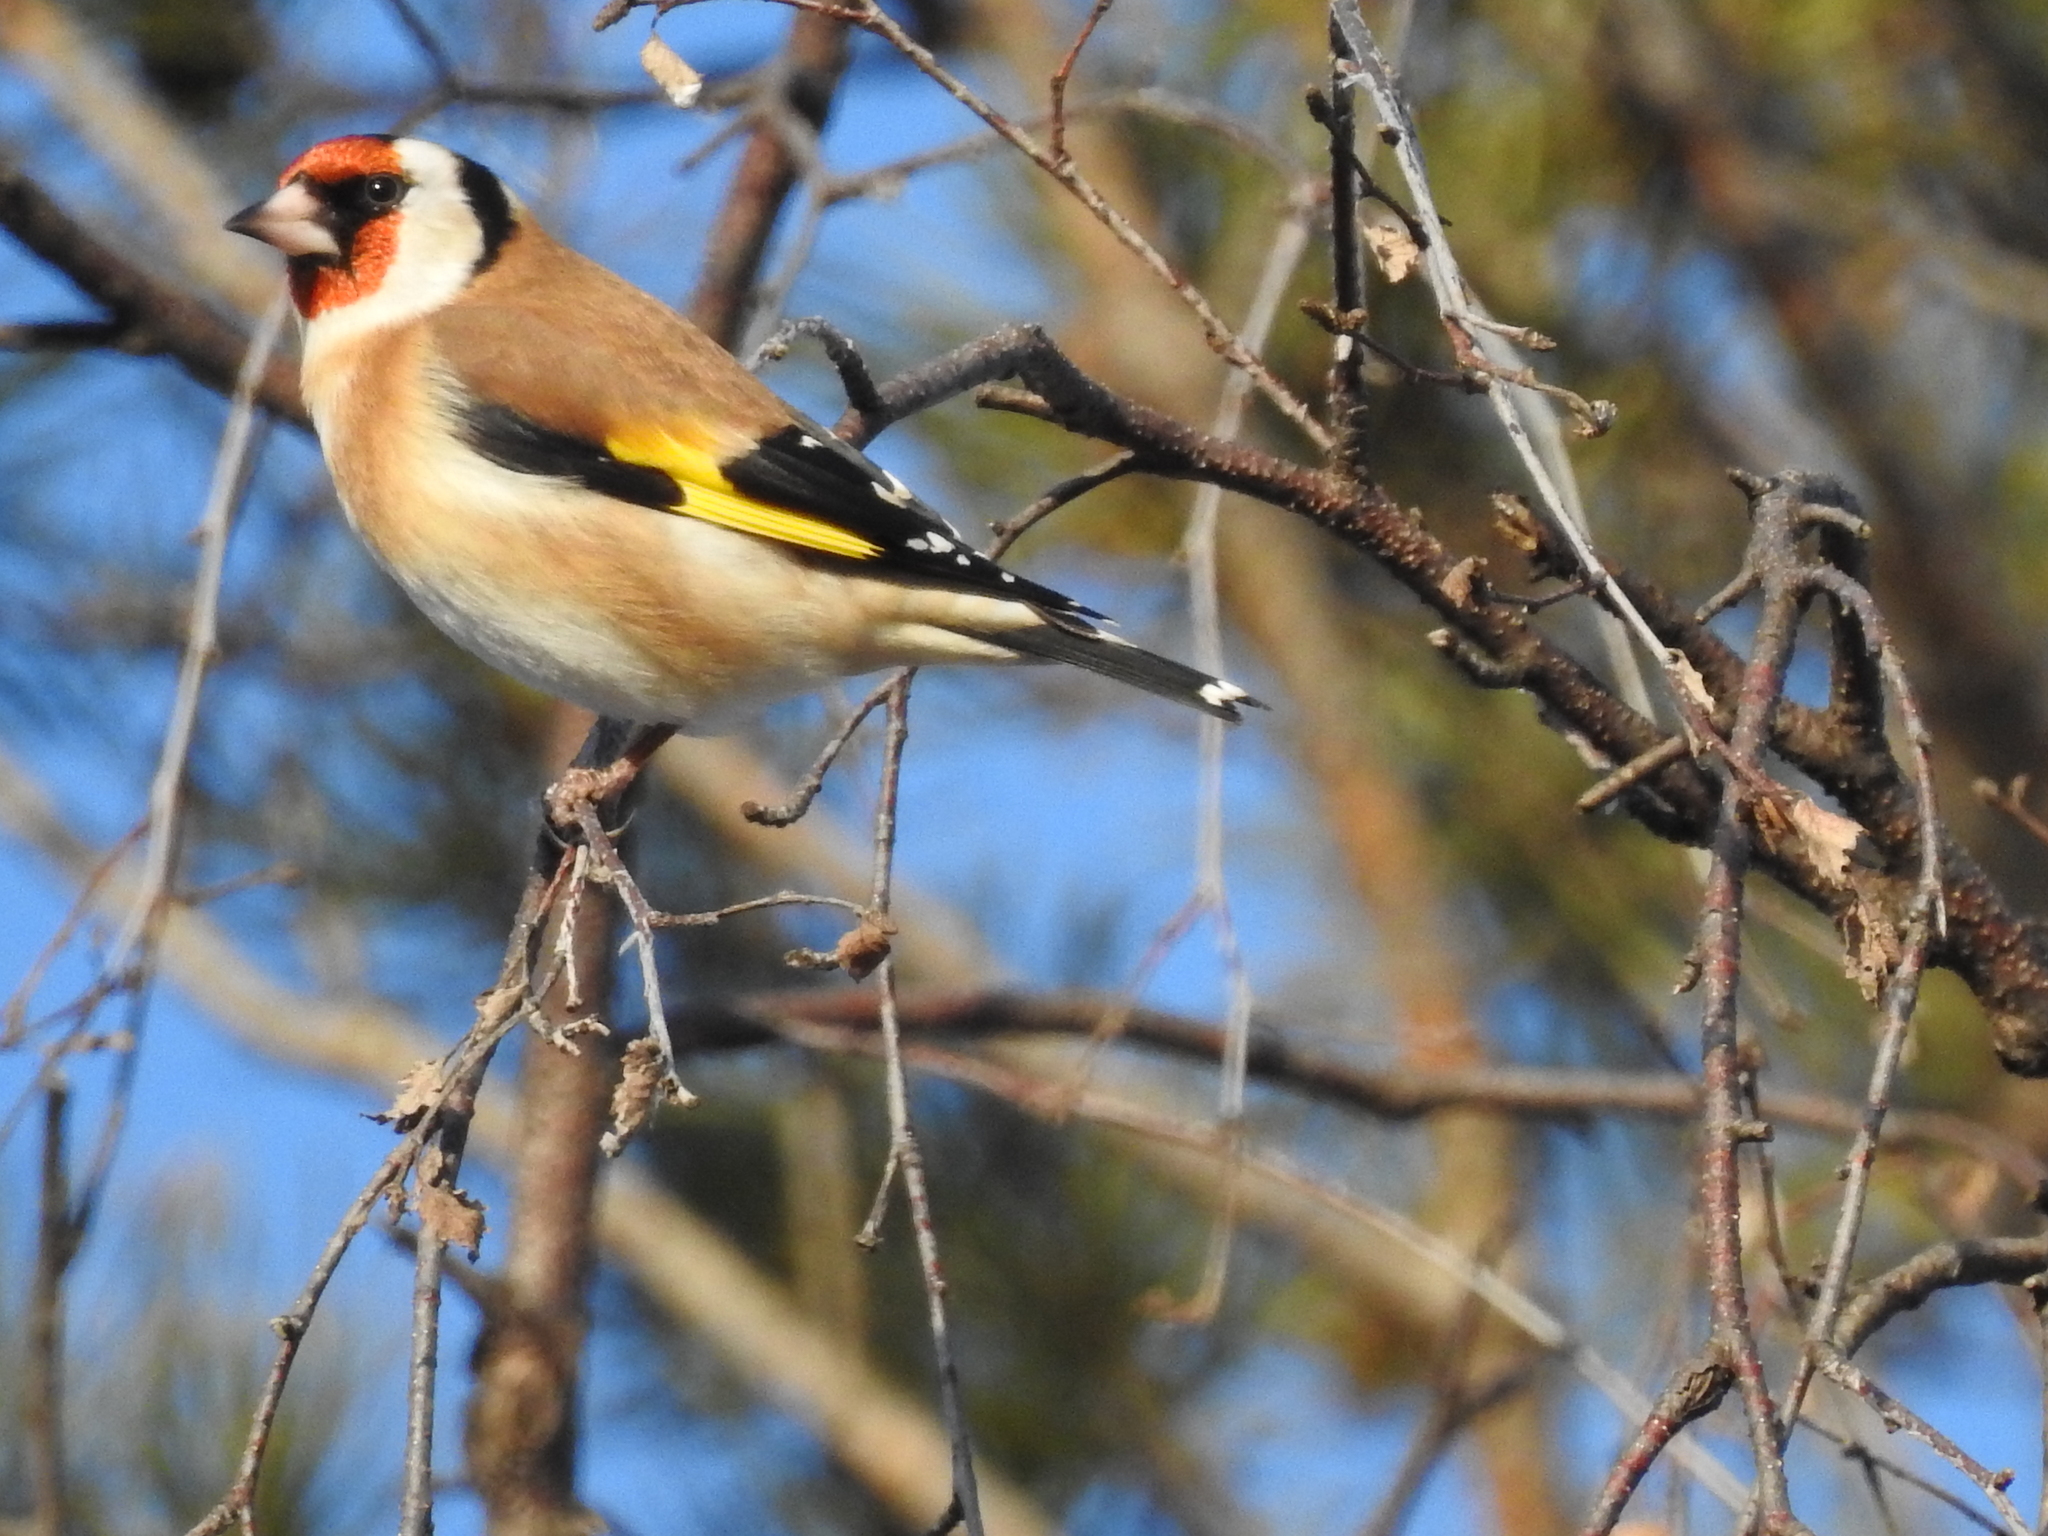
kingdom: Animalia
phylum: Chordata
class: Aves
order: Passeriformes
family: Fringillidae
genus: Carduelis
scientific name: Carduelis carduelis
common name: European goldfinch
